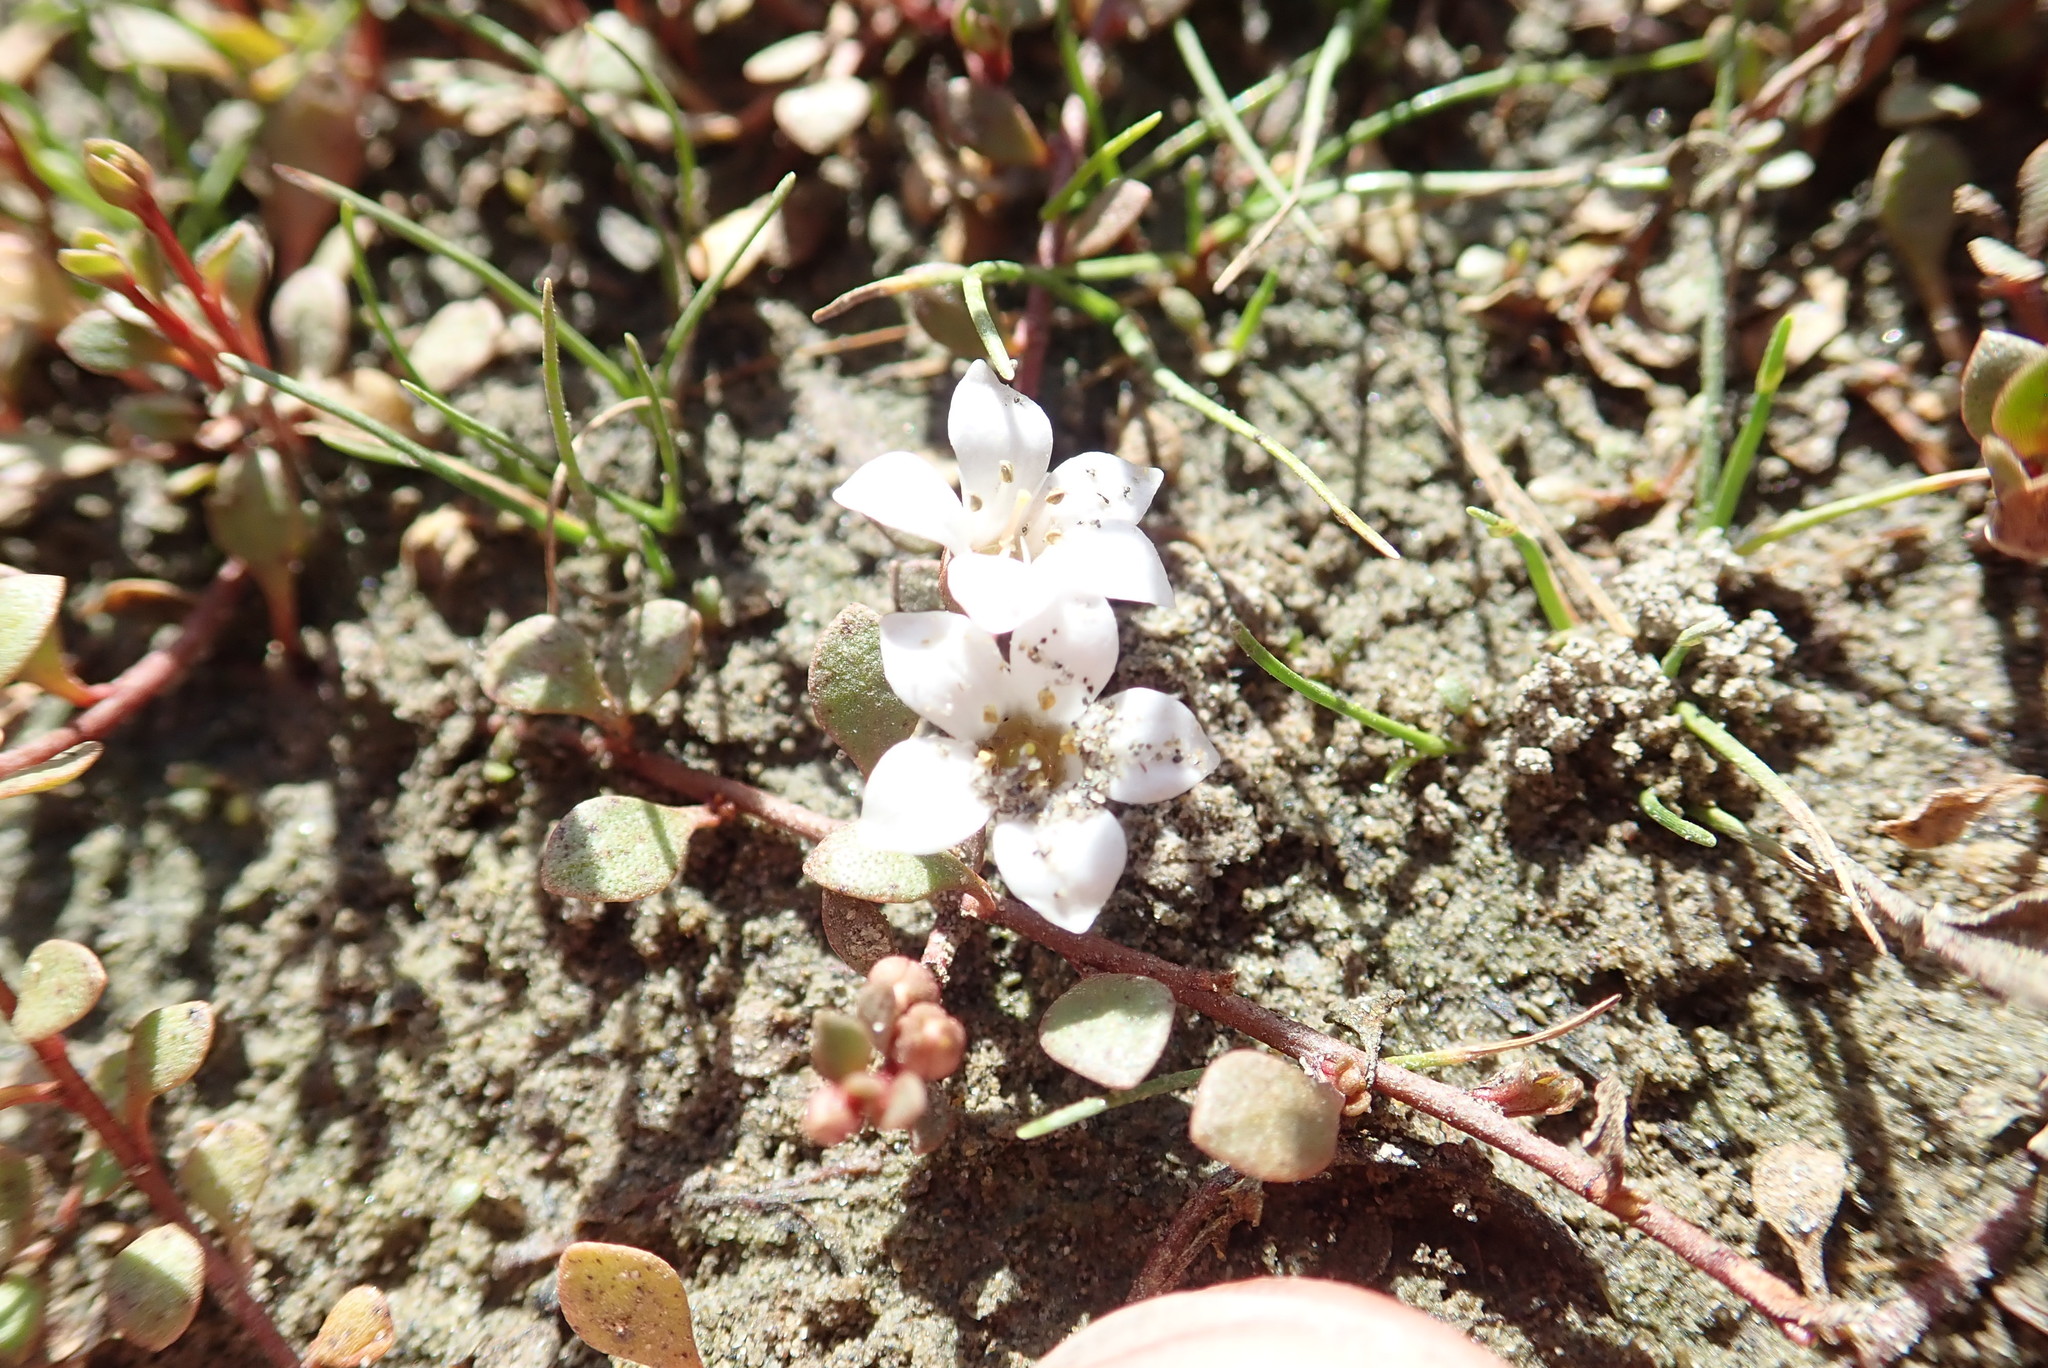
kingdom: Plantae
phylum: Tracheophyta
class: Magnoliopsida
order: Ericales
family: Primulaceae
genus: Samolus
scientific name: Samolus repens
